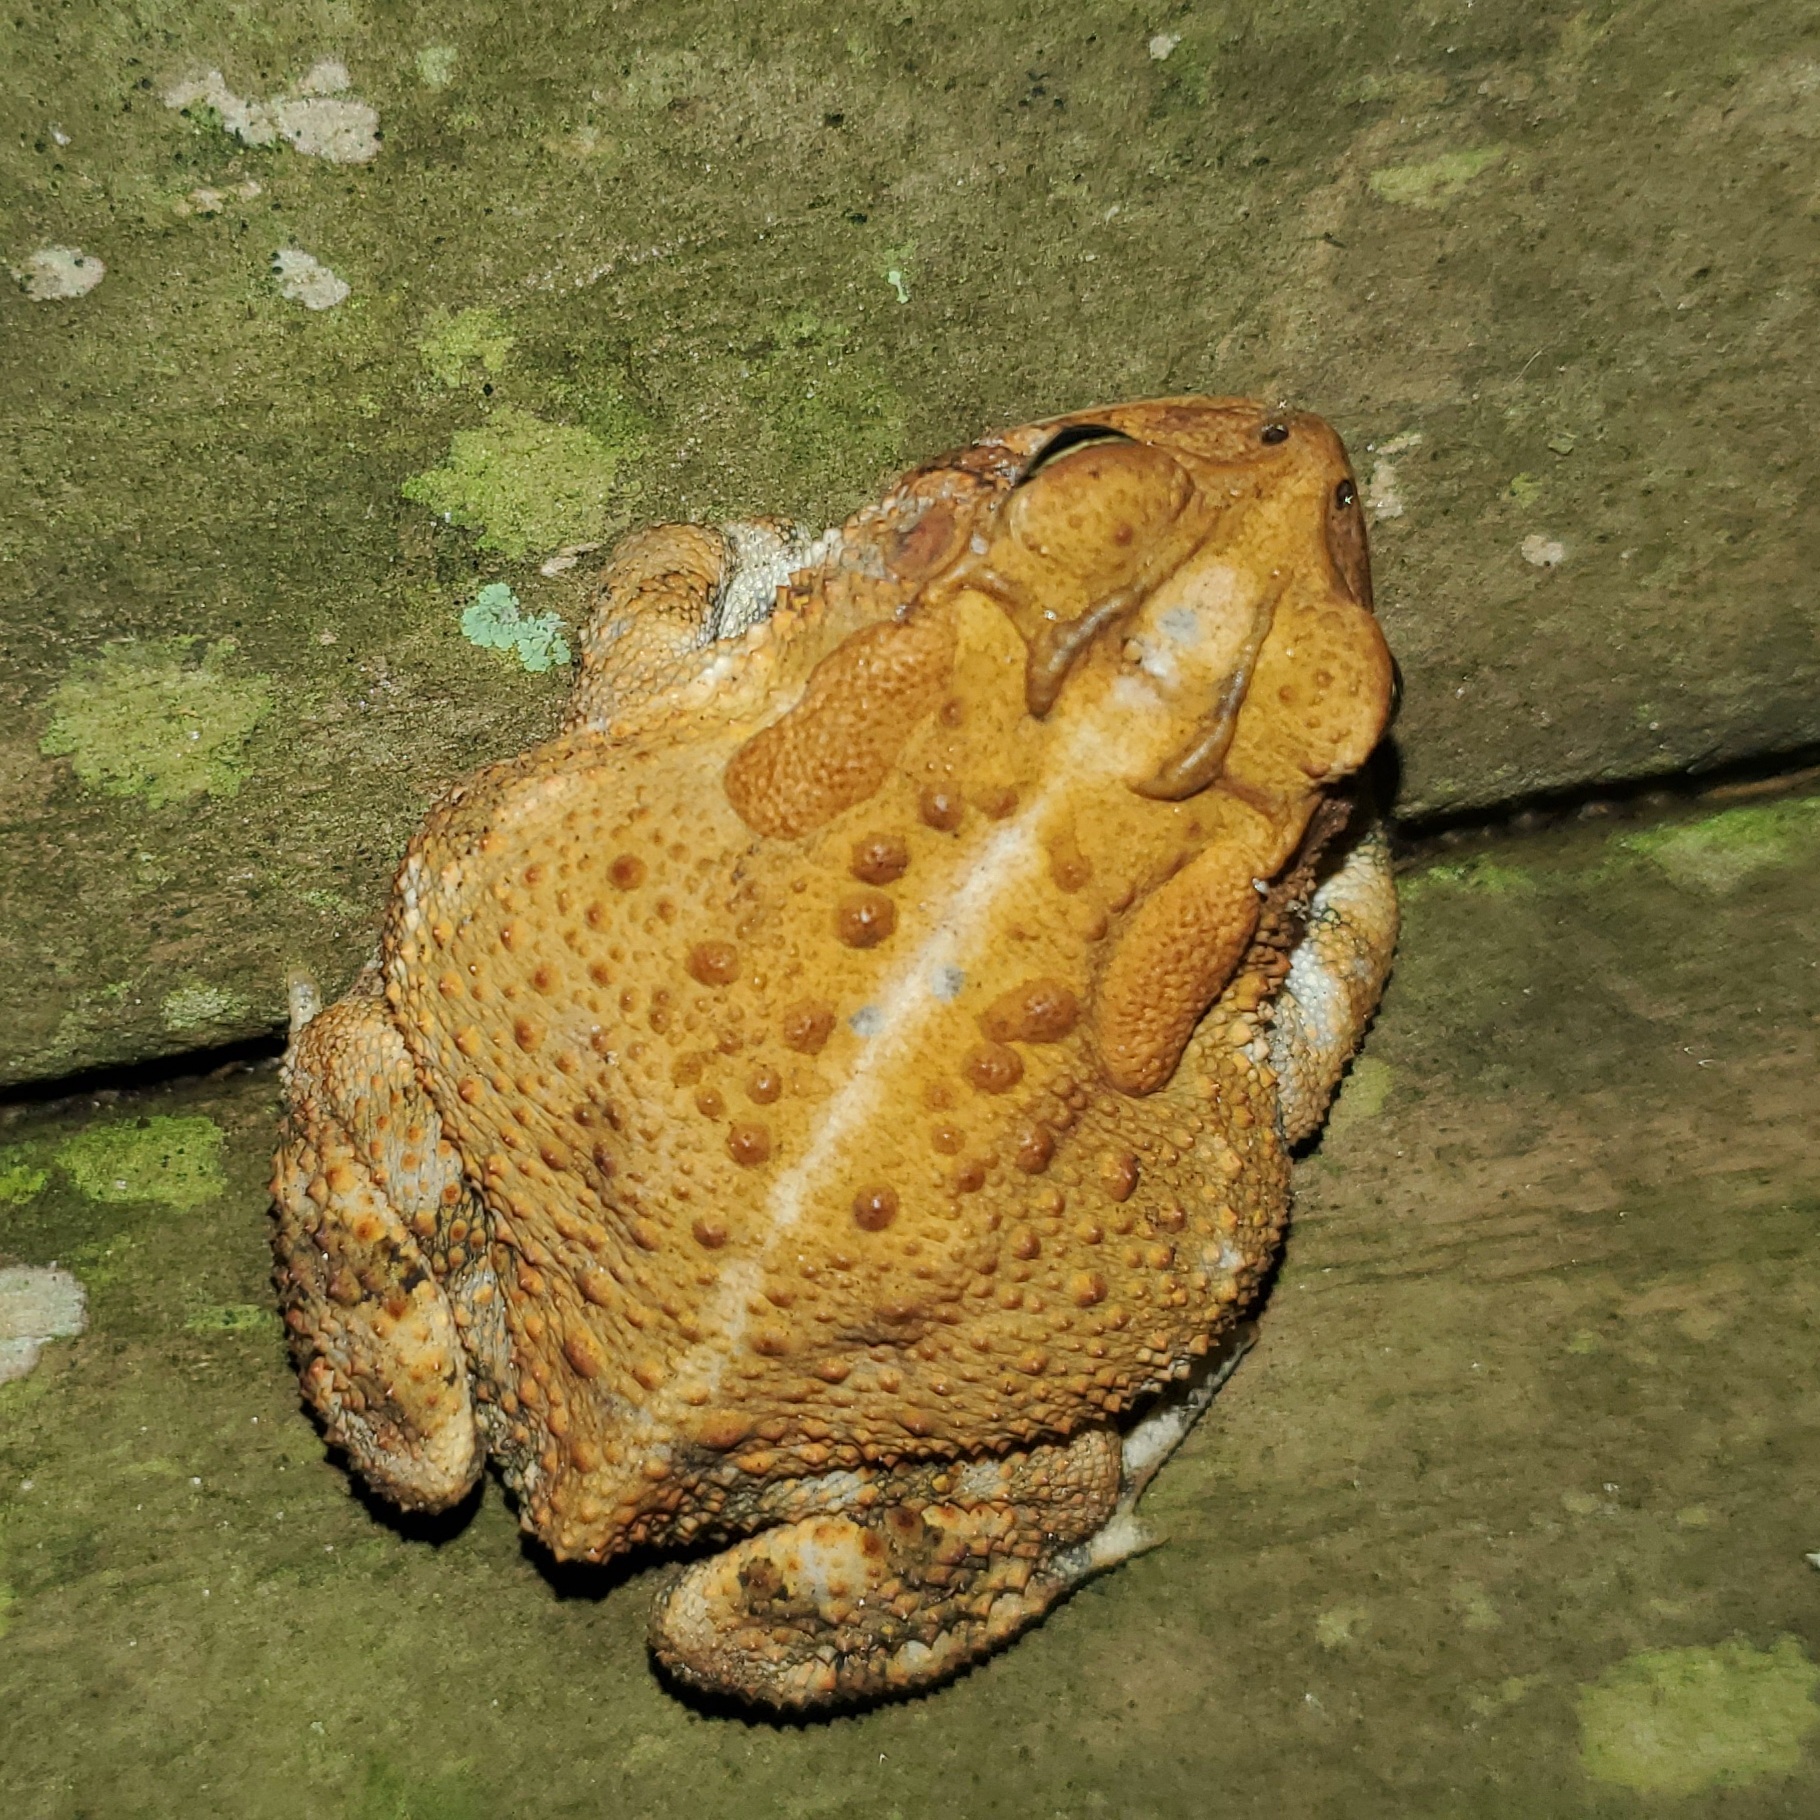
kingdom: Animalia
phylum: Chordata
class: Amphibia
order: Anura
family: Bufonidae
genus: Anaxyrus
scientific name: Anaxyrus terrestris
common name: Southern toad
